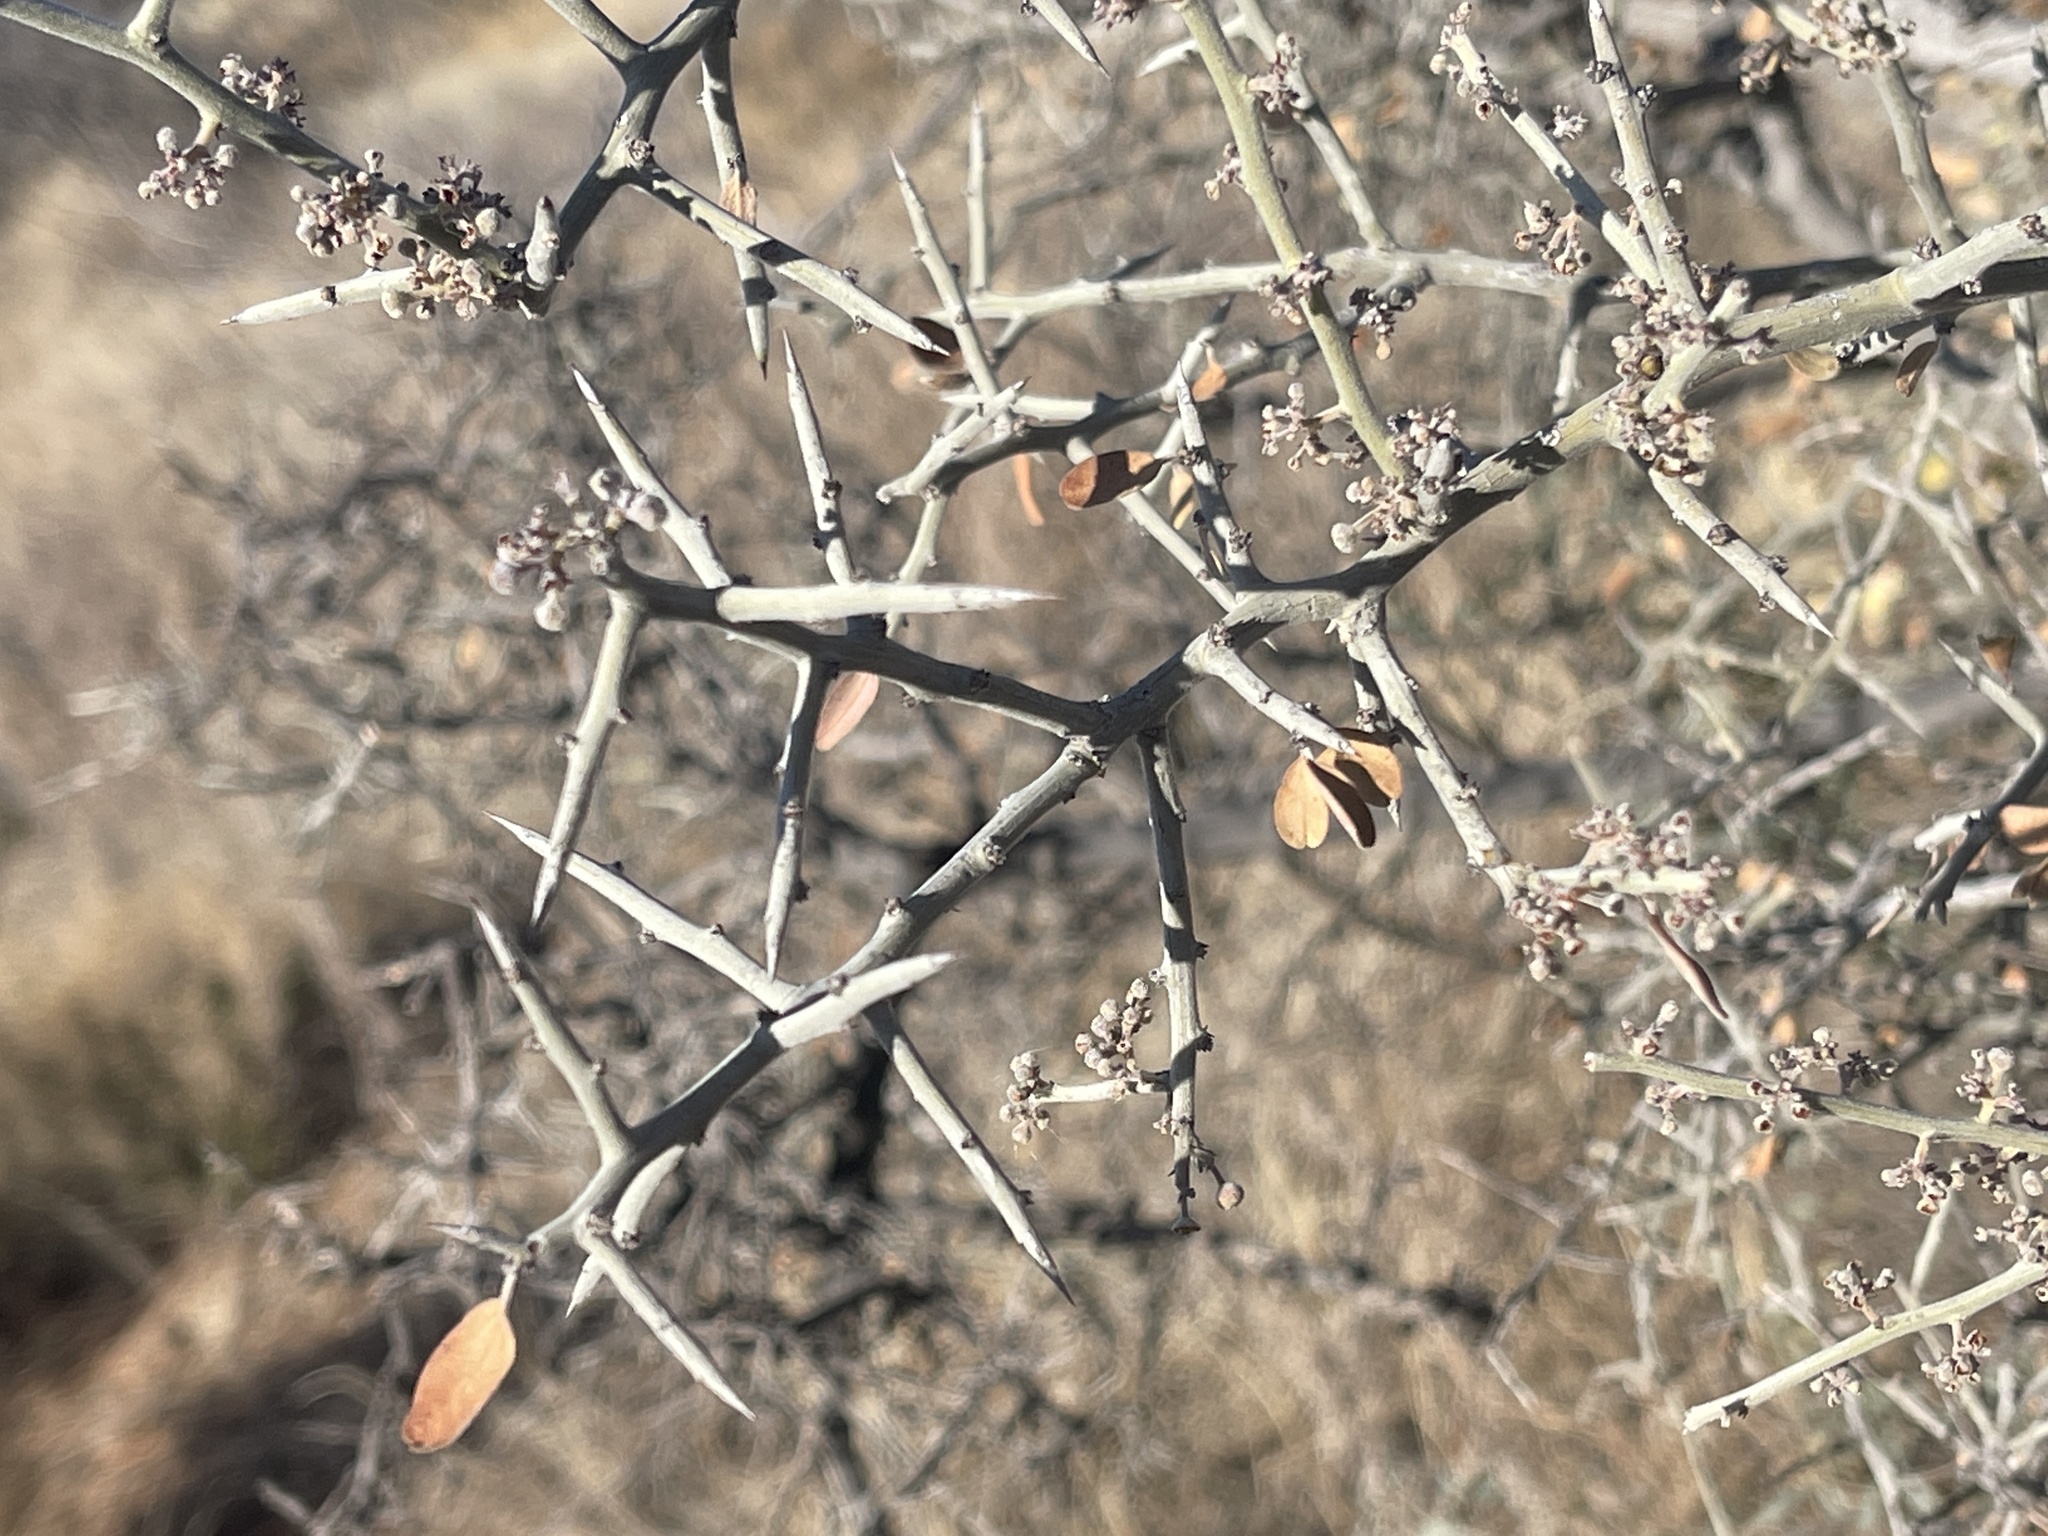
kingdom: Plantae
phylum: Tracheophyta
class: Magnoliopsida
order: Rosales
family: Rhamnaceae
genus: Sarcomphalus
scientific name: Sarcomphalus obtusifolius
